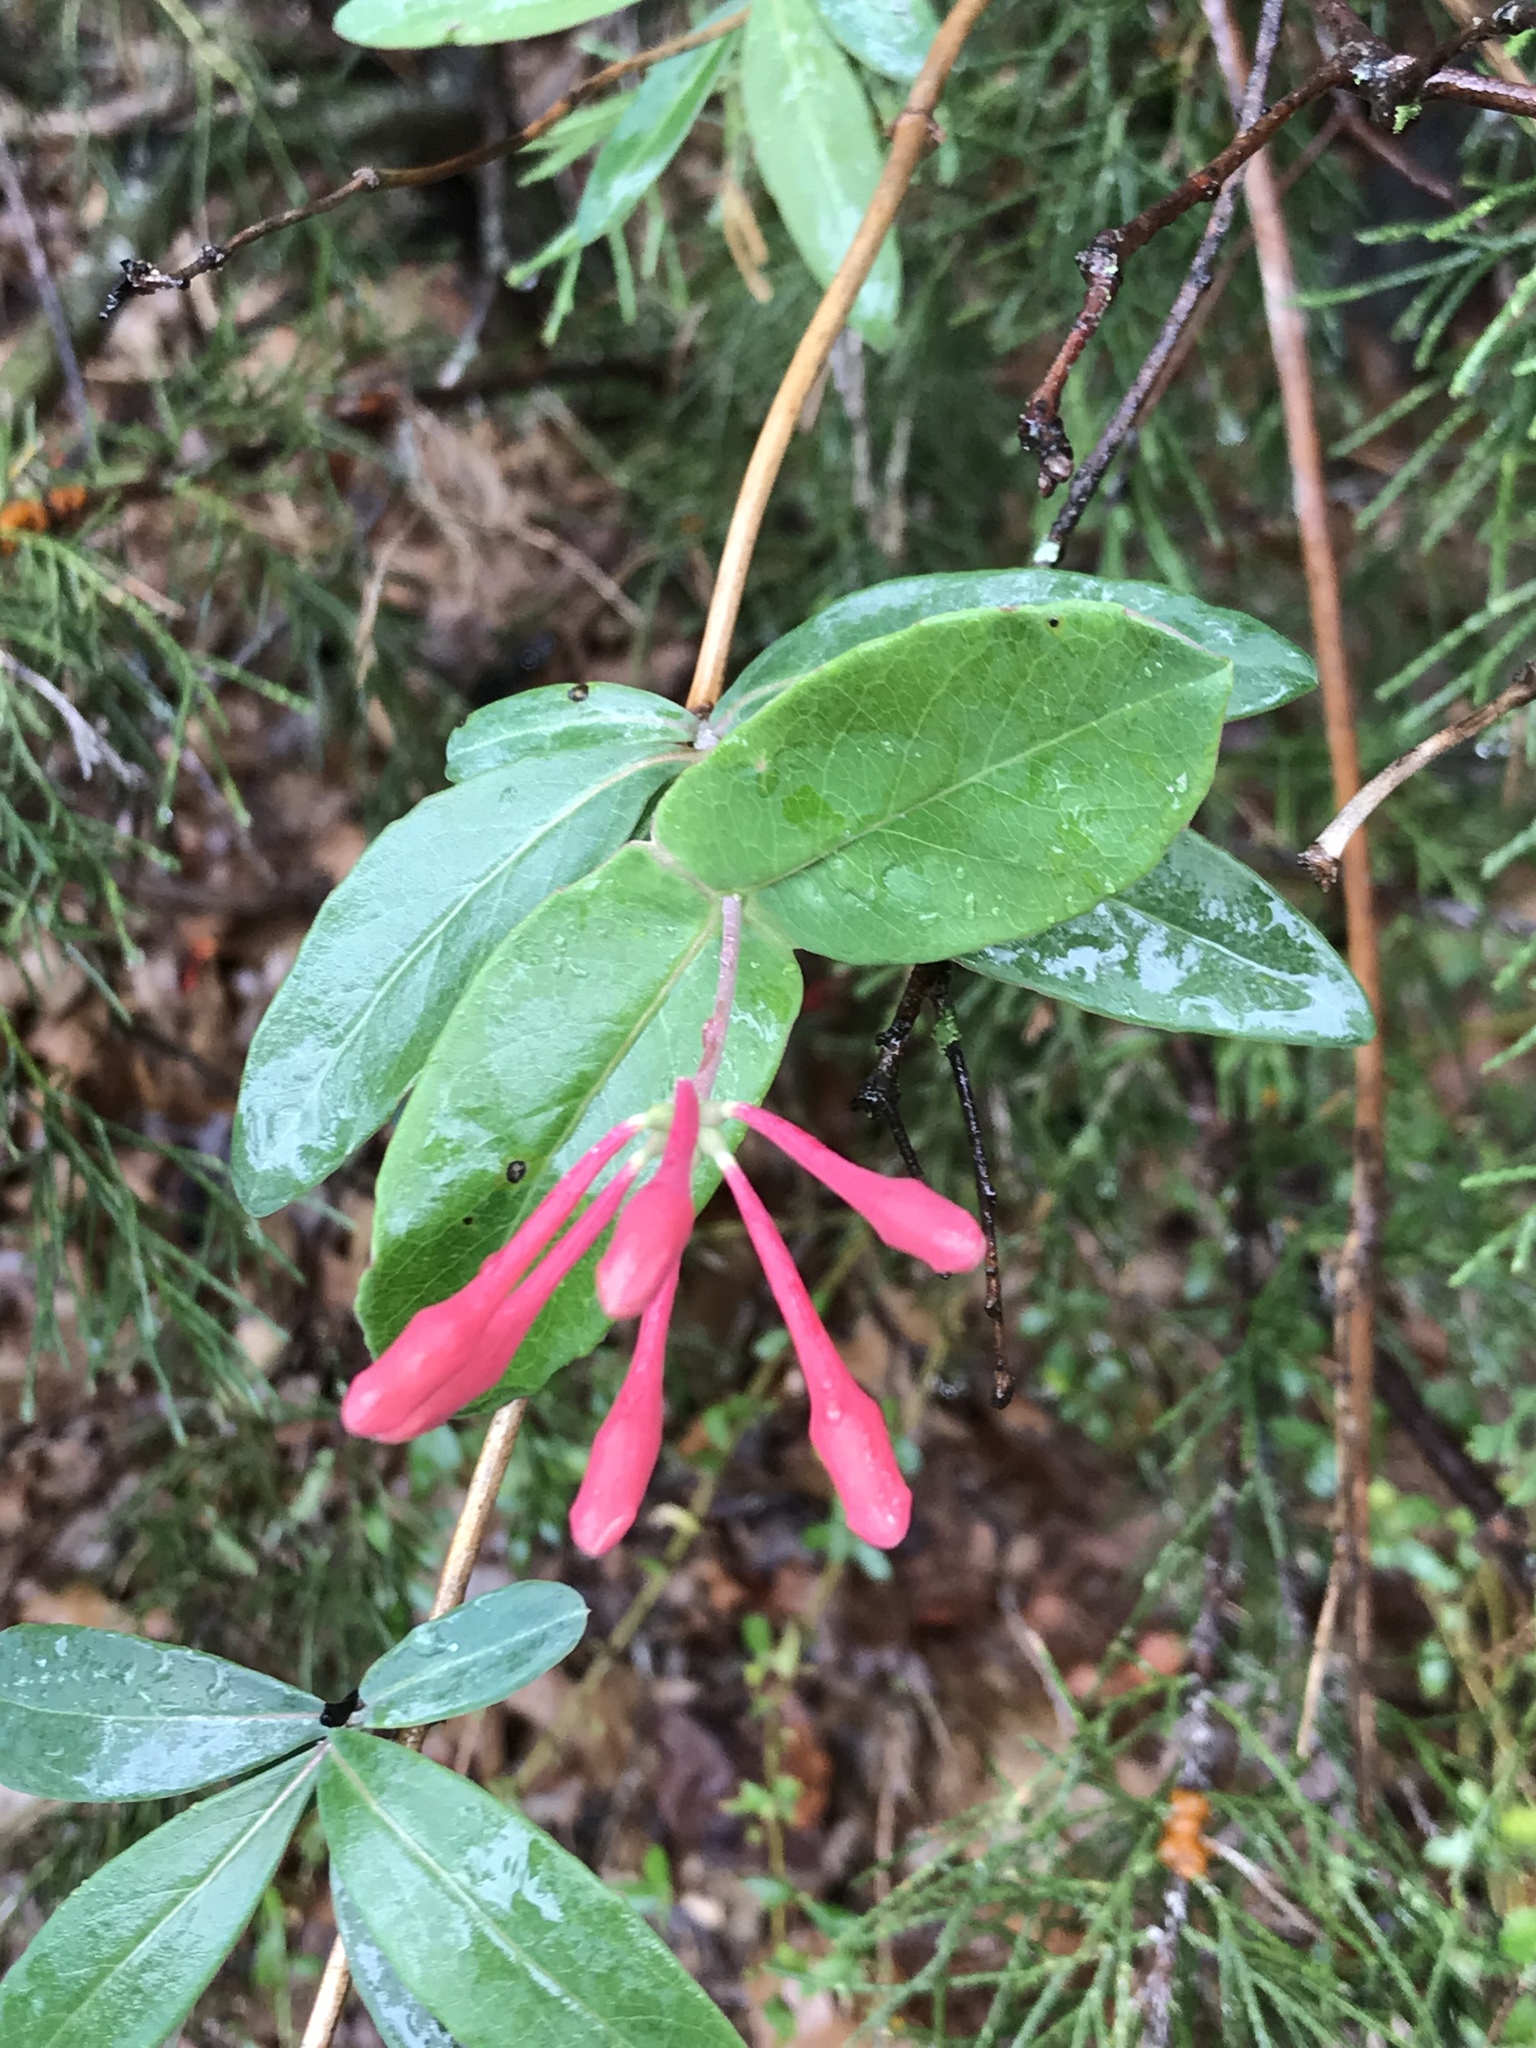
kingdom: Plantae
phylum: Tracheophyta
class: Magnoliopsida
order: Dipsacales
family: Caprifoliaceae
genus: Lonicera
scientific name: Lonicera sempervirens
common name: Coral honeysuckle
